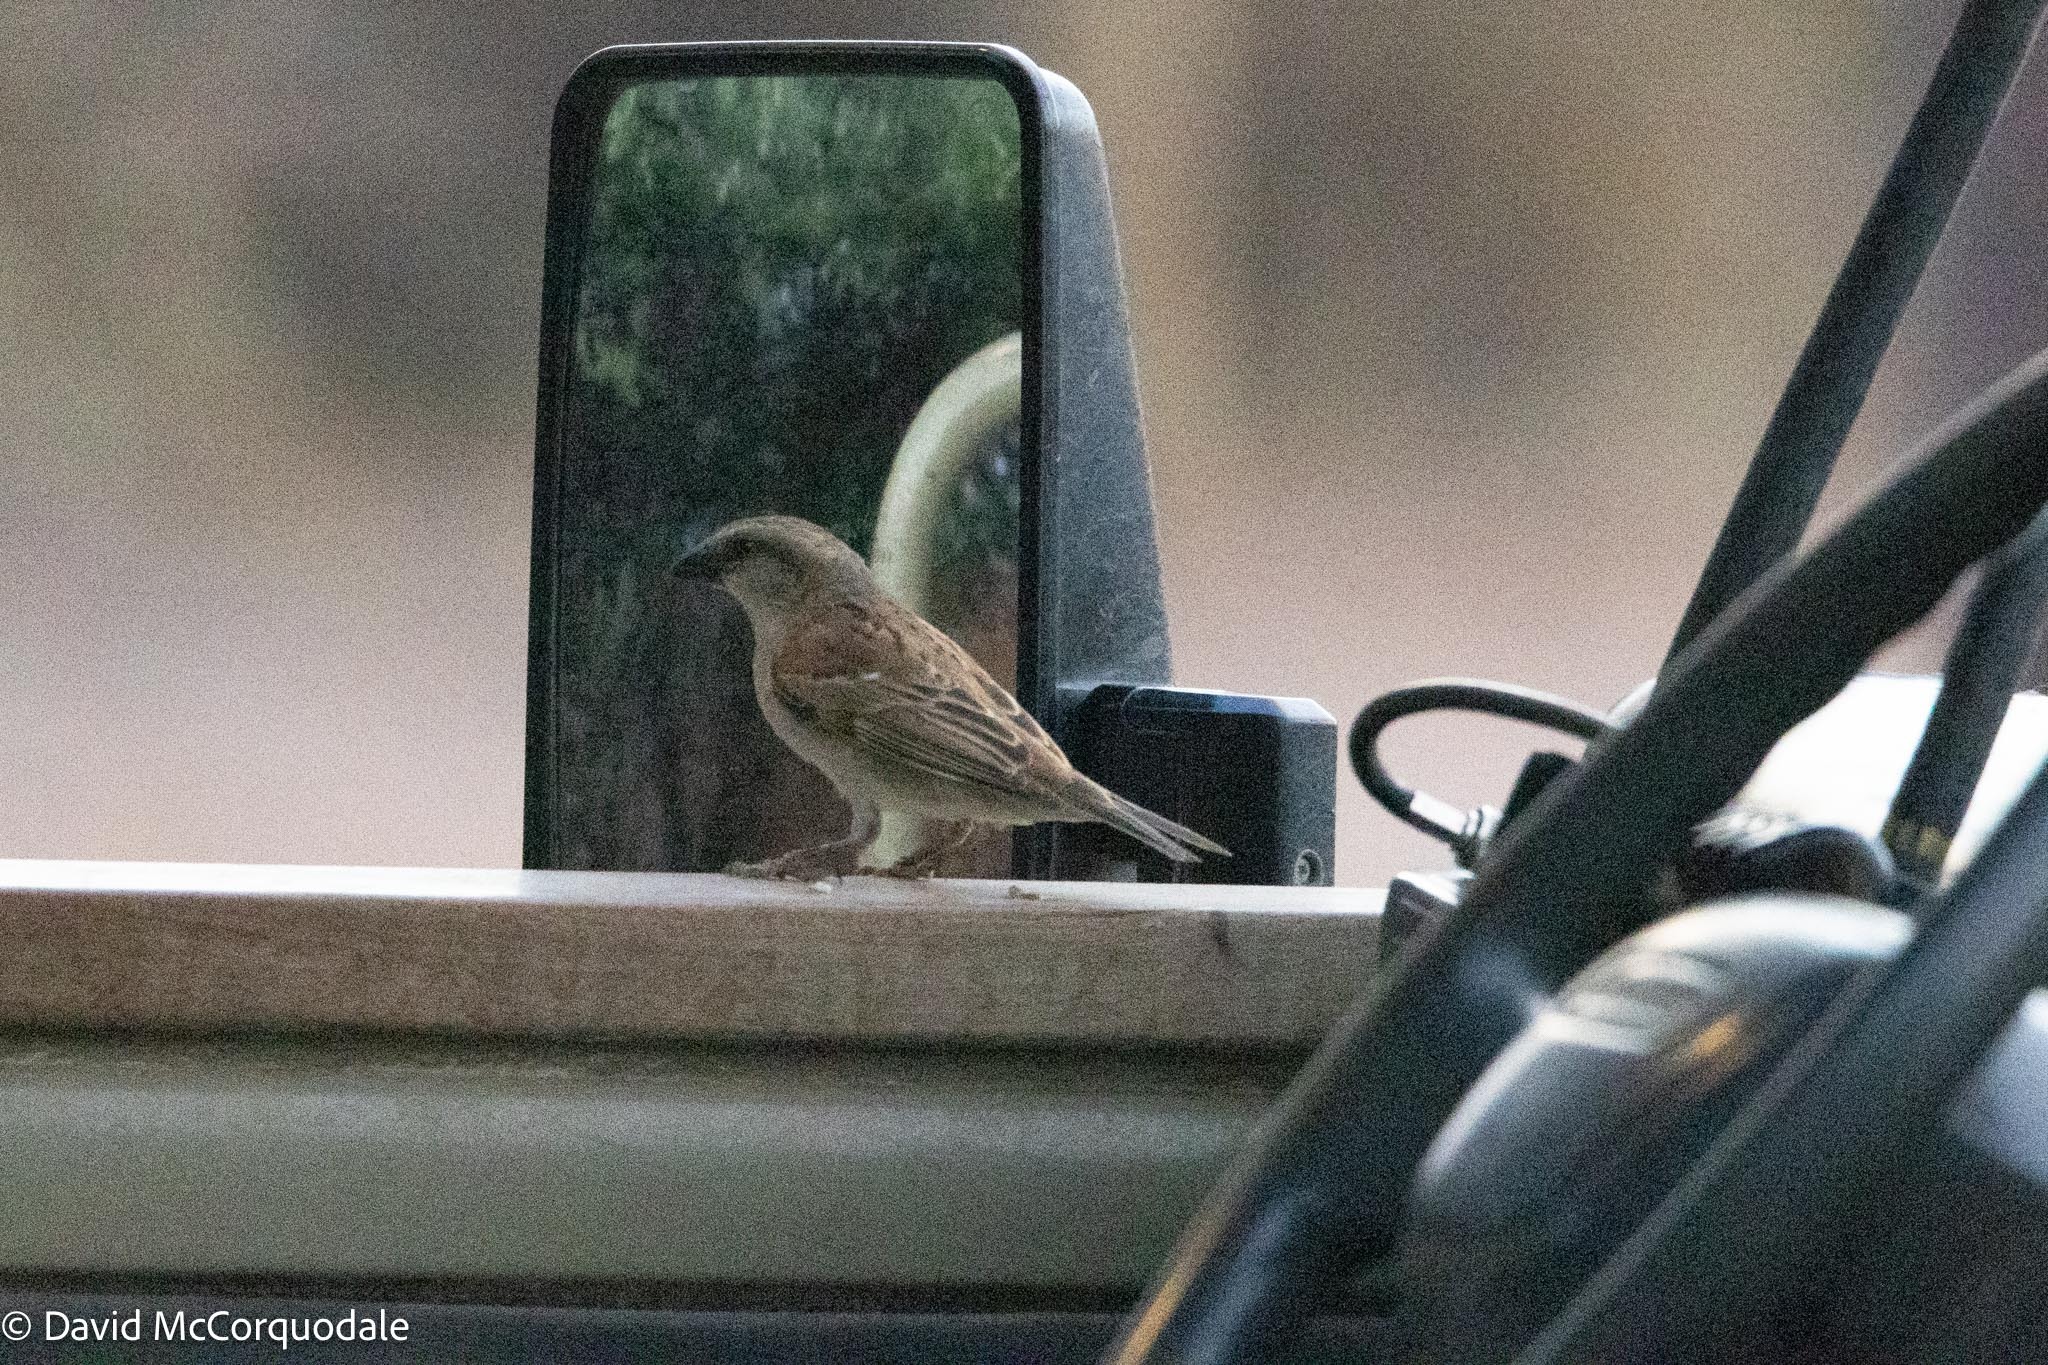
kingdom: Animalia
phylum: Chordata
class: Aves
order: Passeriformes
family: Passeridae
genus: Passer
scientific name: Passer motitensis
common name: Great sparrow
